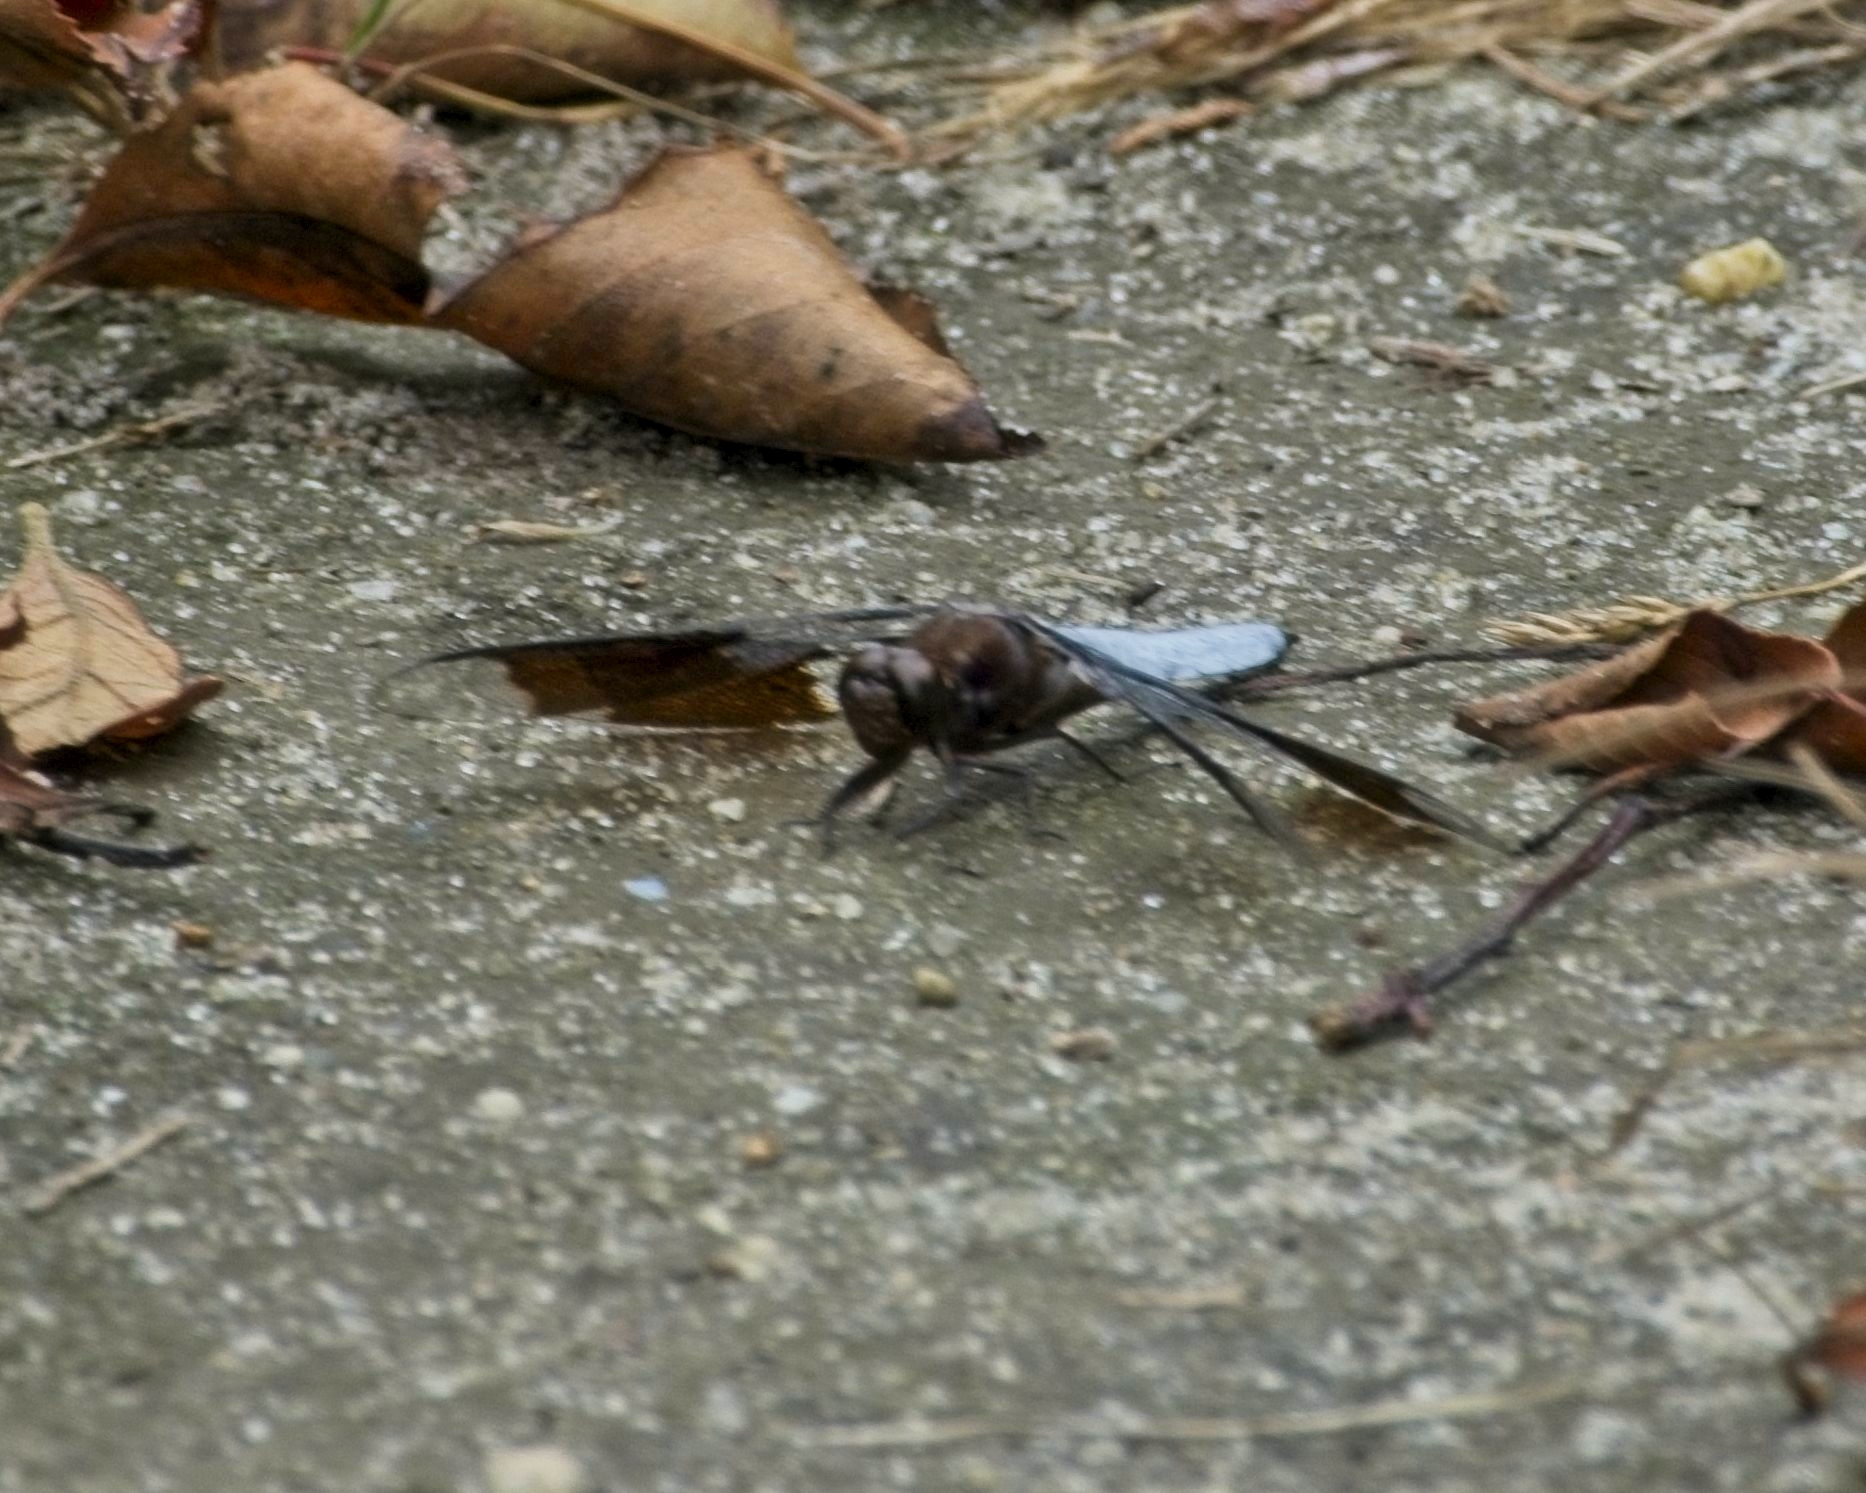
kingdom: Animalia
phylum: Arthropoda
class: Insecta
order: Odonata
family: Libellulidae
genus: Plathemis
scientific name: Plathemis lydia
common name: Common whitetail
